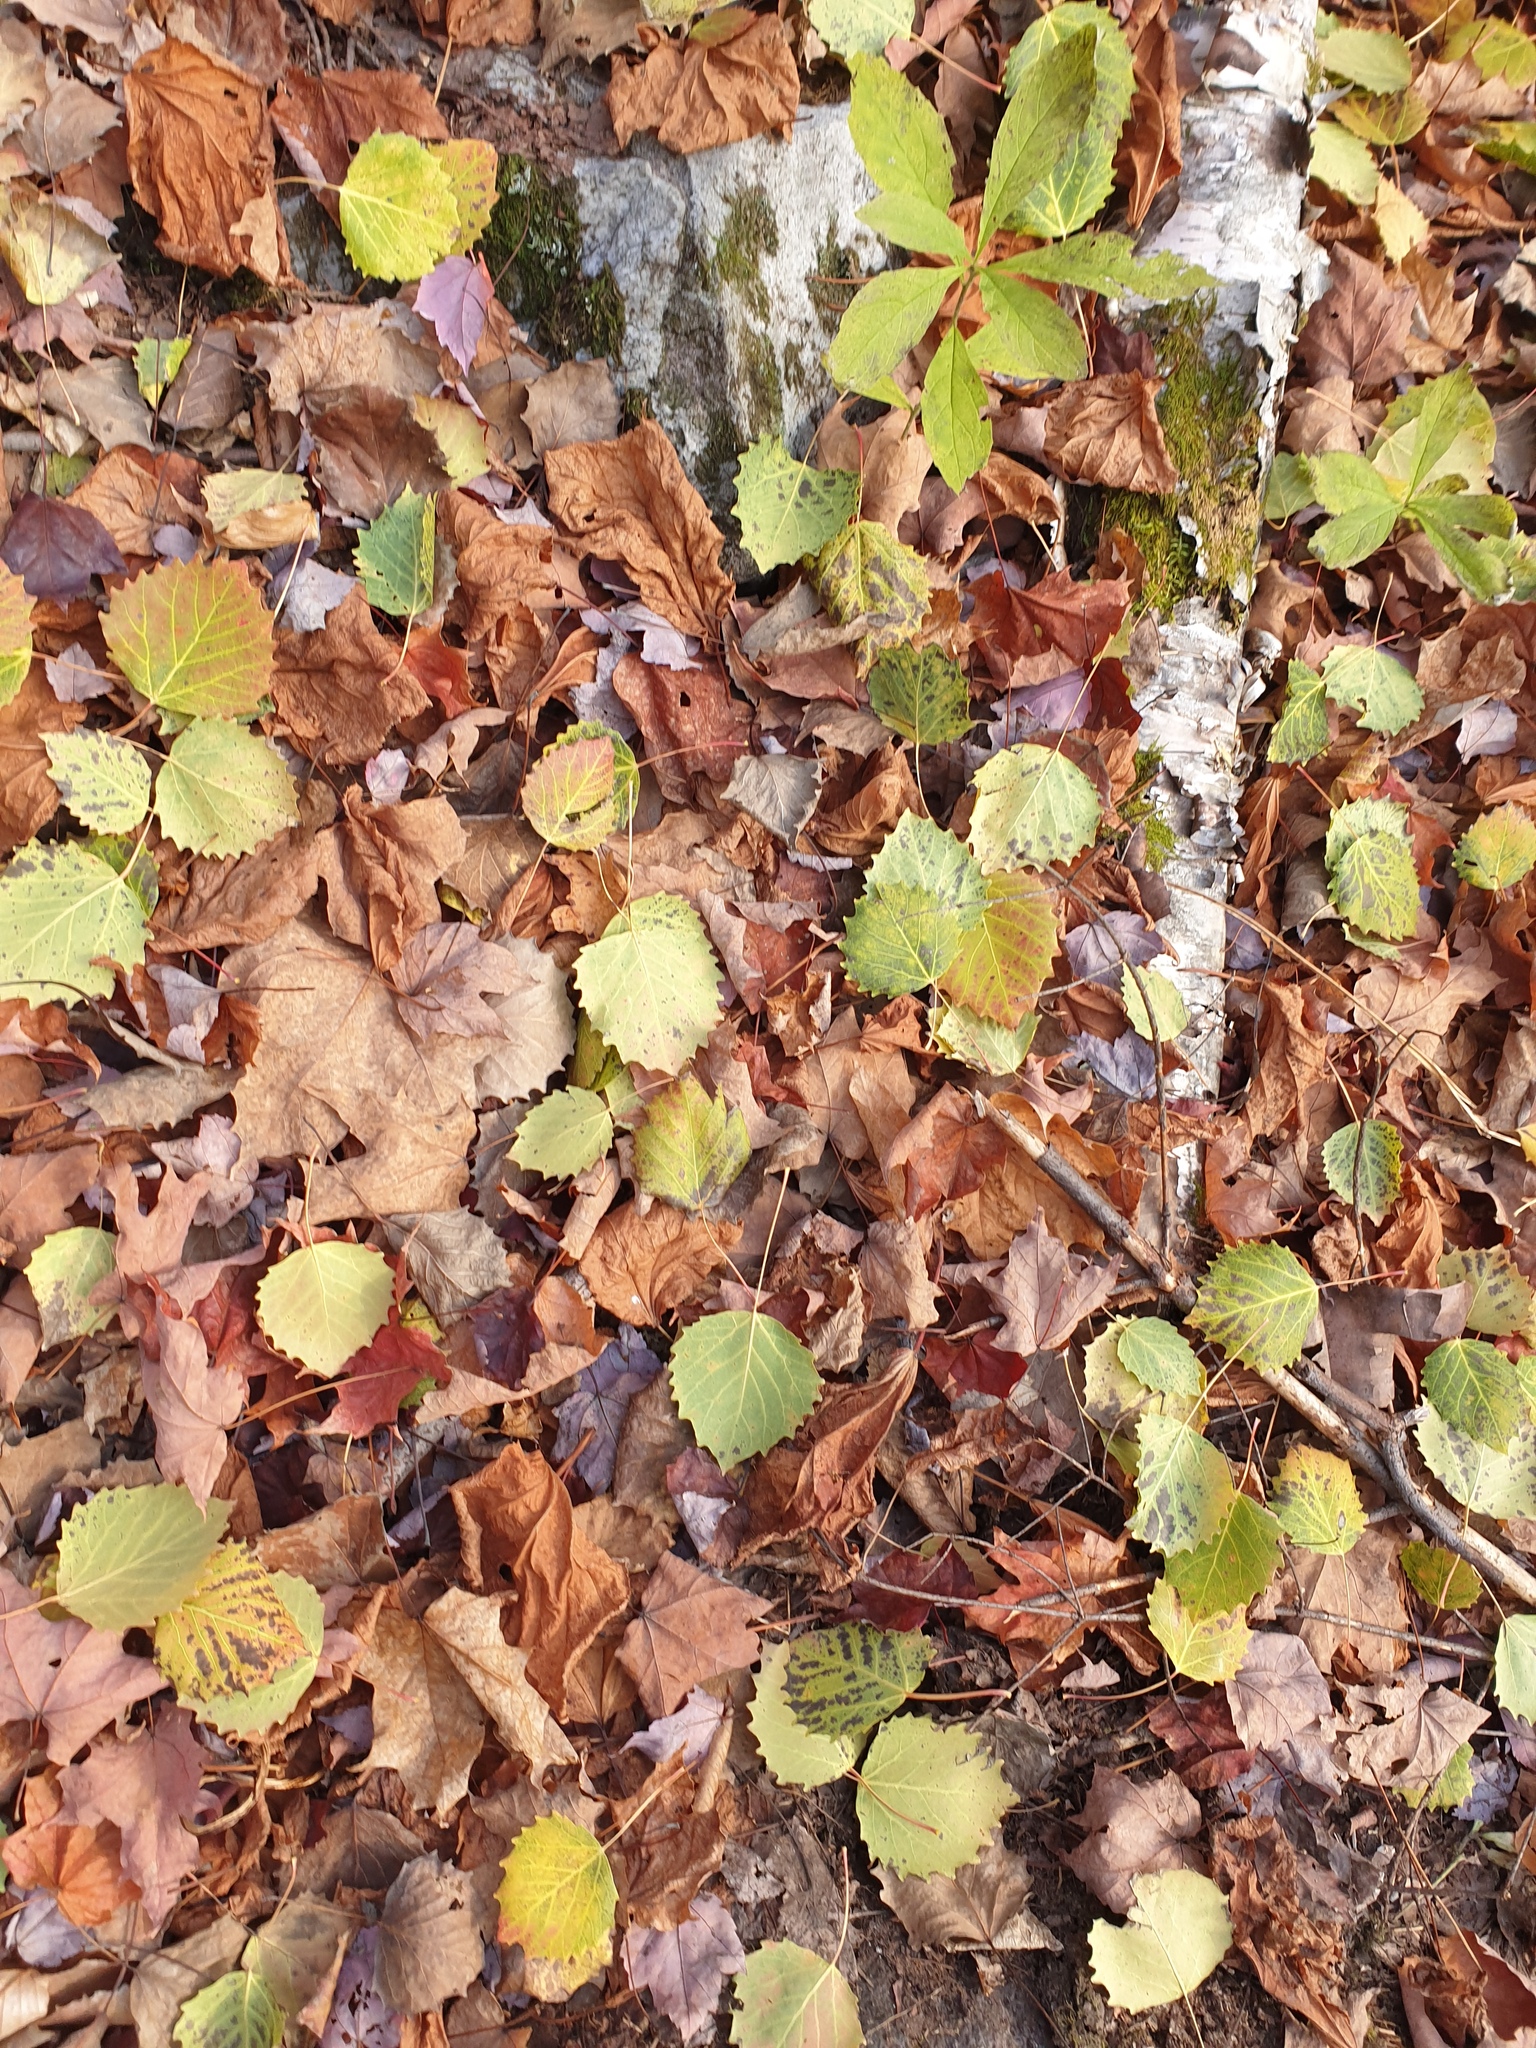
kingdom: Plantae
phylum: Tracheophyta
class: Magnoliopsida
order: Malpighiales
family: Salicaceae
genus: Populus
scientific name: Populus grandidentata
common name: Bigtooth aspen
